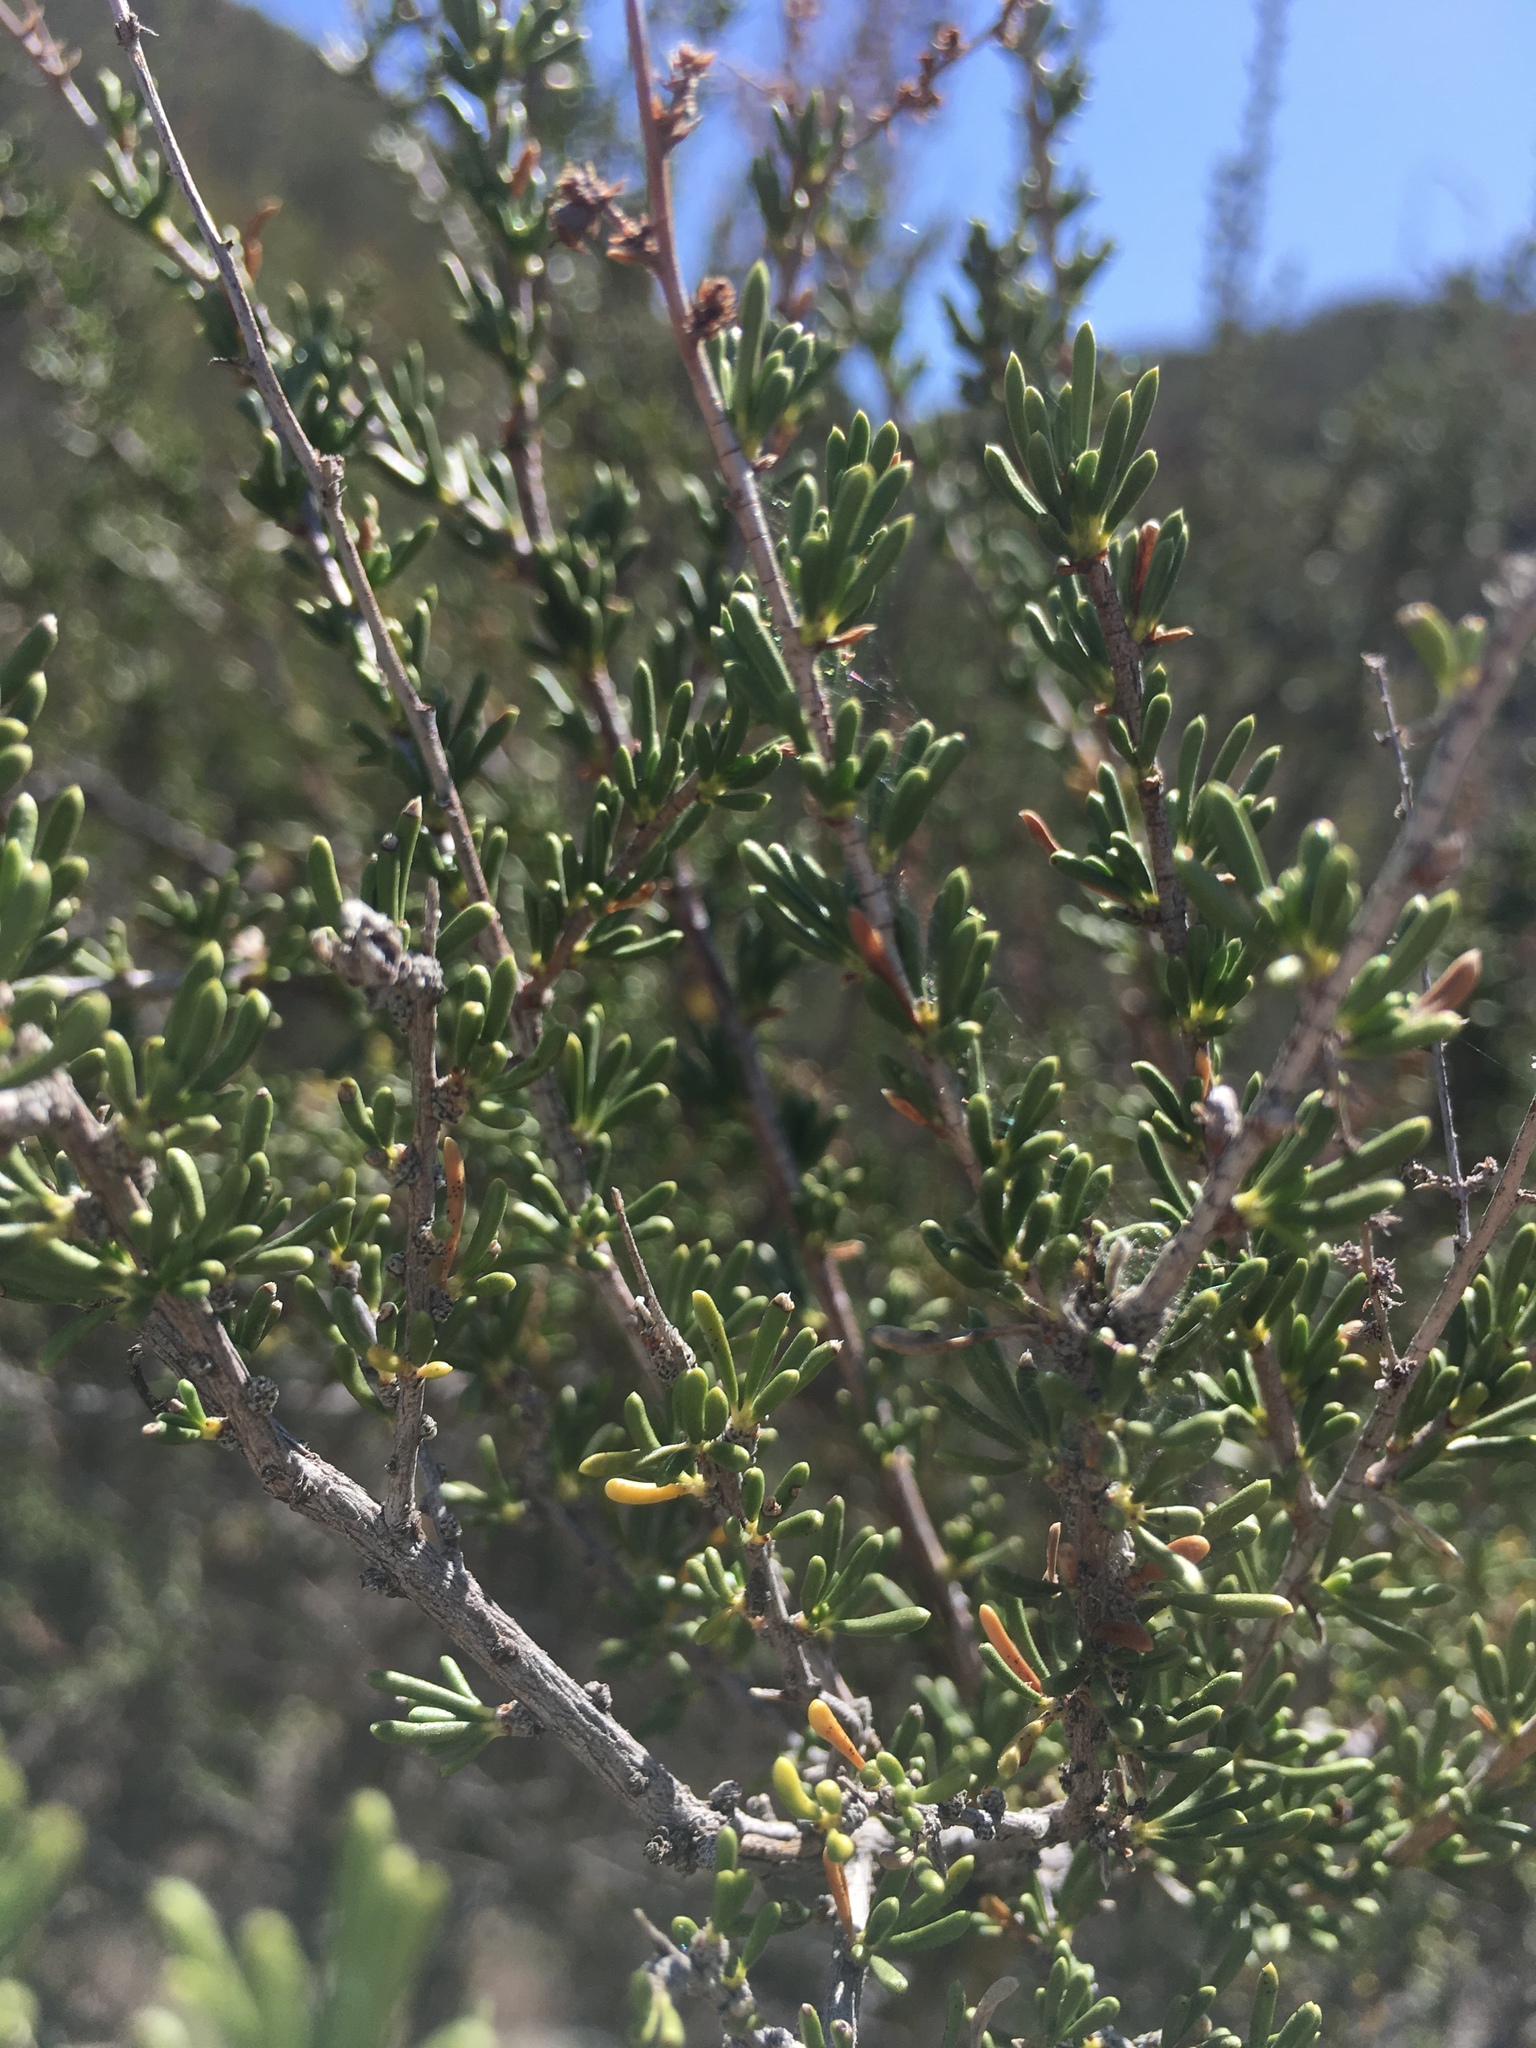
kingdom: Plantae
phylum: Tracheophyta
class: Magnoliopsida
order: Rosales
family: Rosaceae
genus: Adenostoma
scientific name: Adenostoma fasciculatum
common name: Chamise
